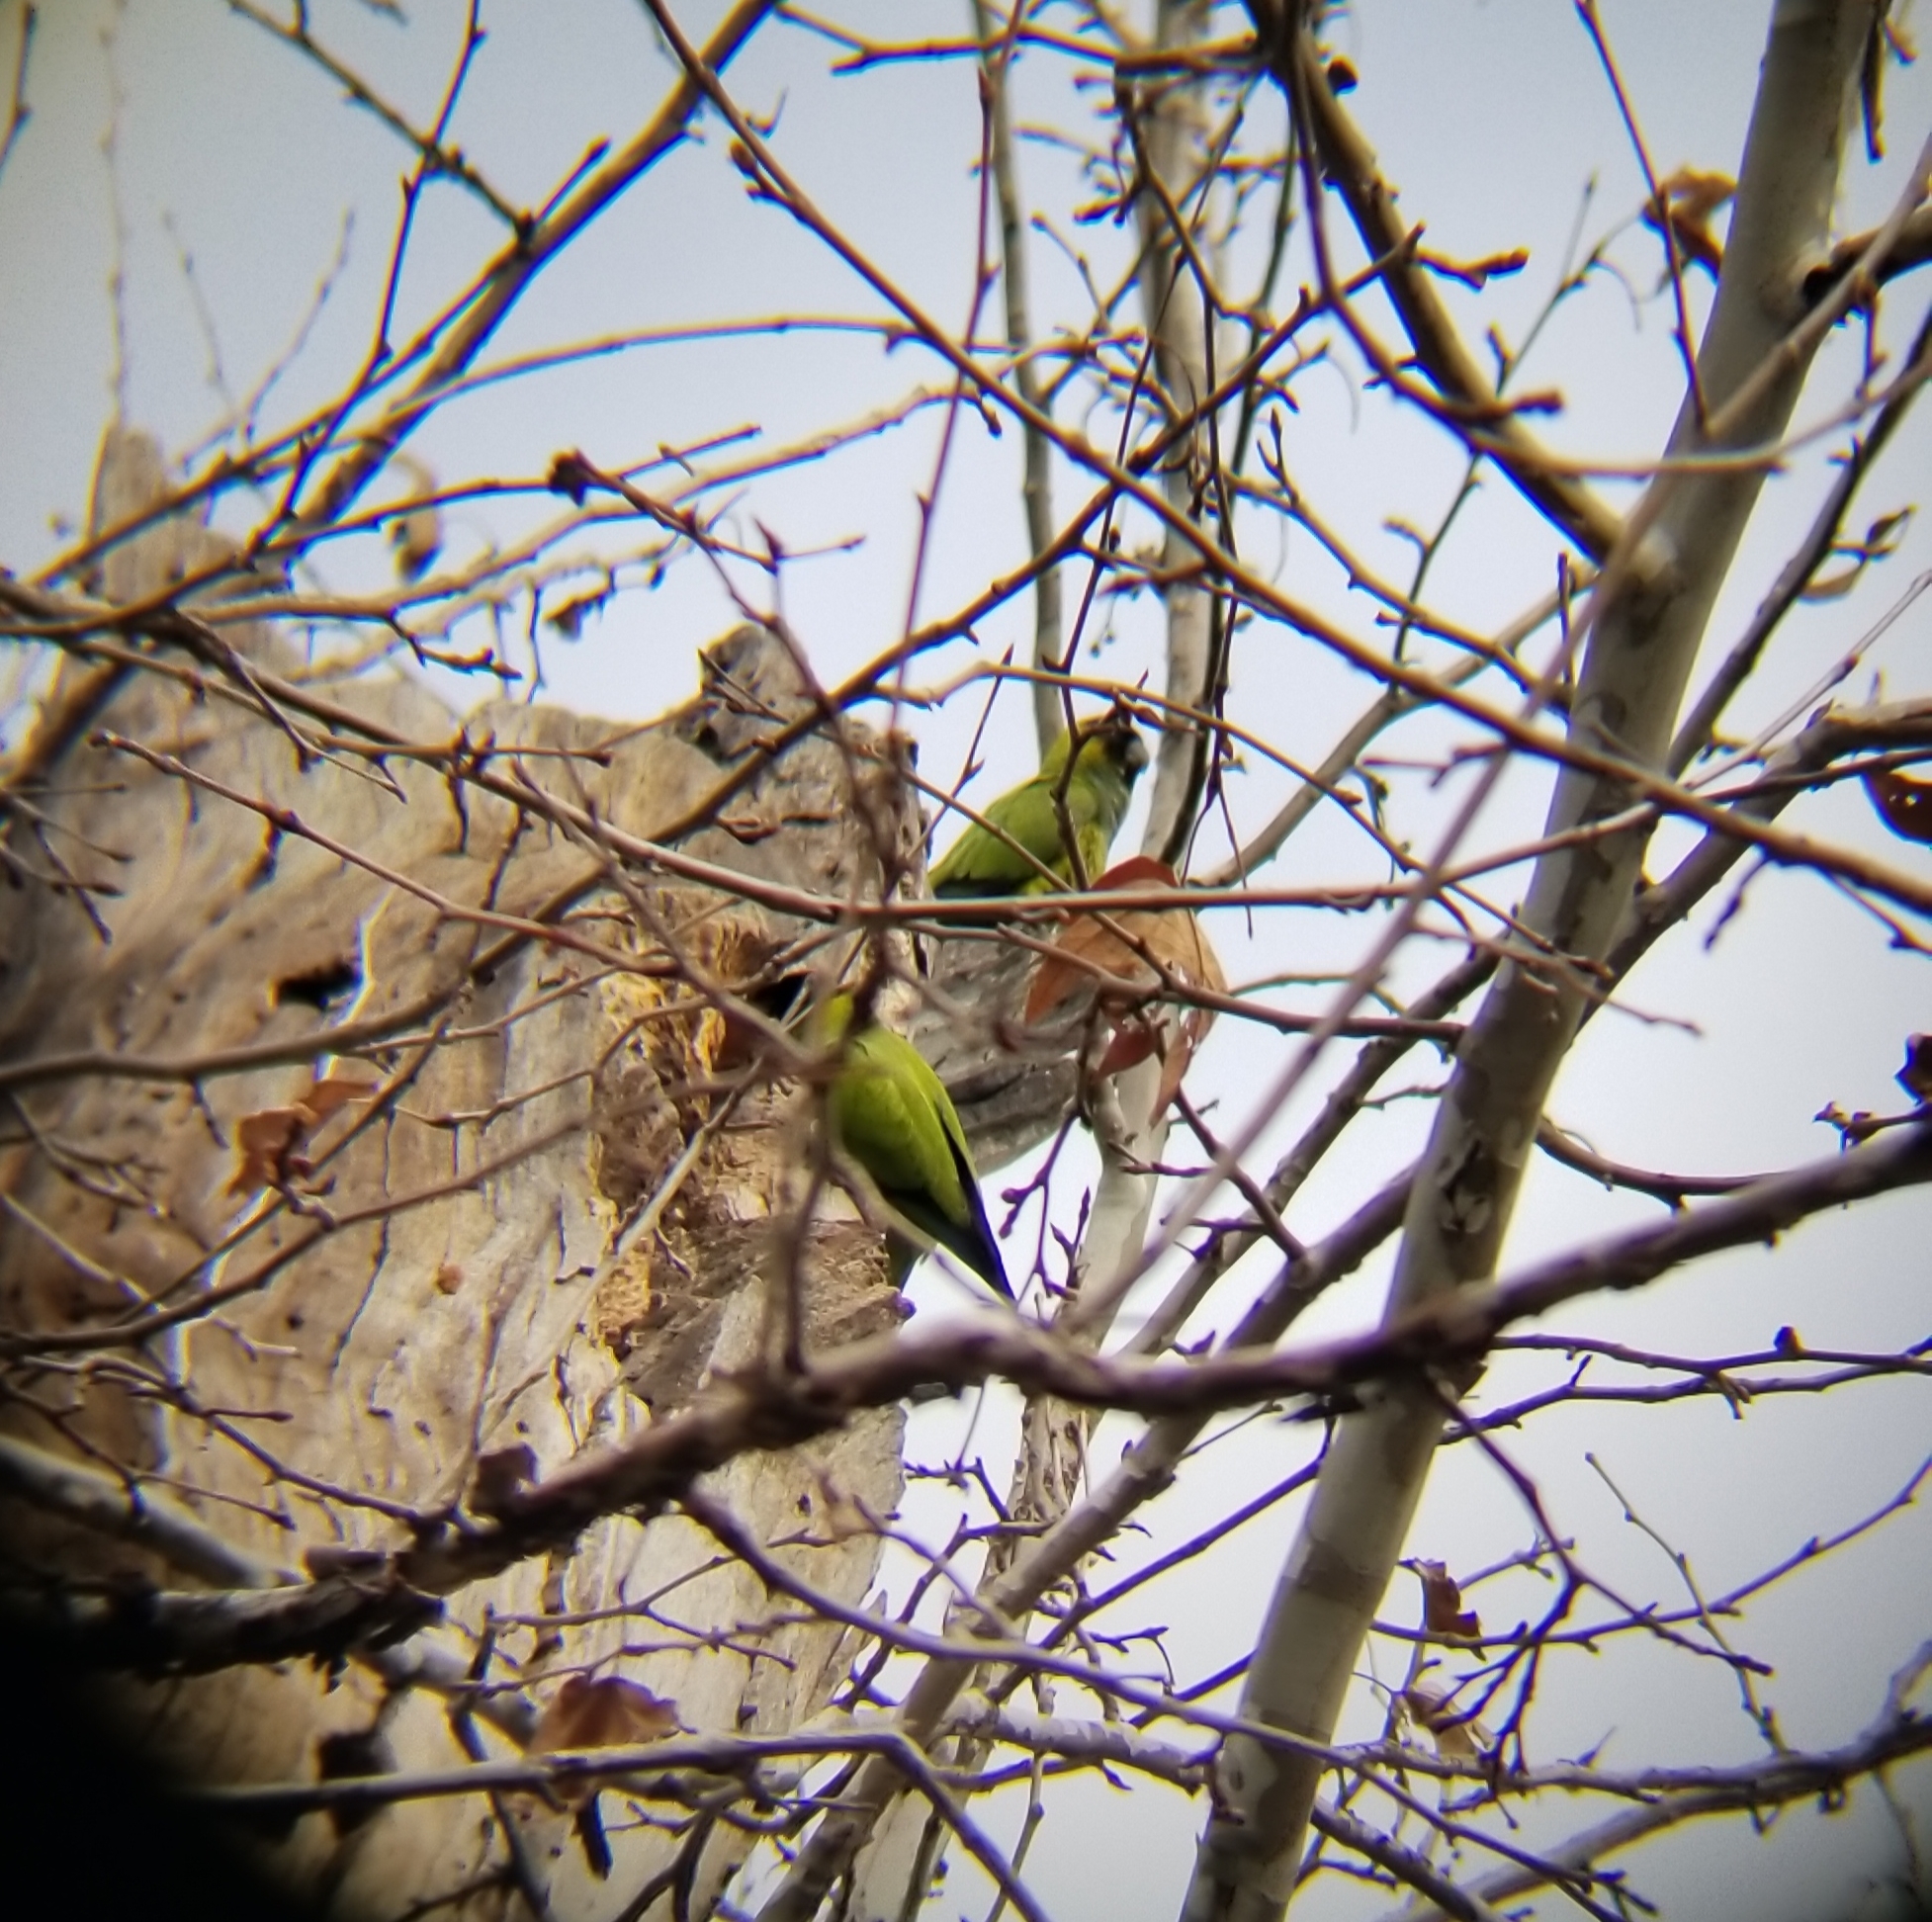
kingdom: Animalia
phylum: Chordata
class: Aves
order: Psittaciformes
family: Psittacidae
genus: Nandayus
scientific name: Nandayus nenday
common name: Nanday parakeet
